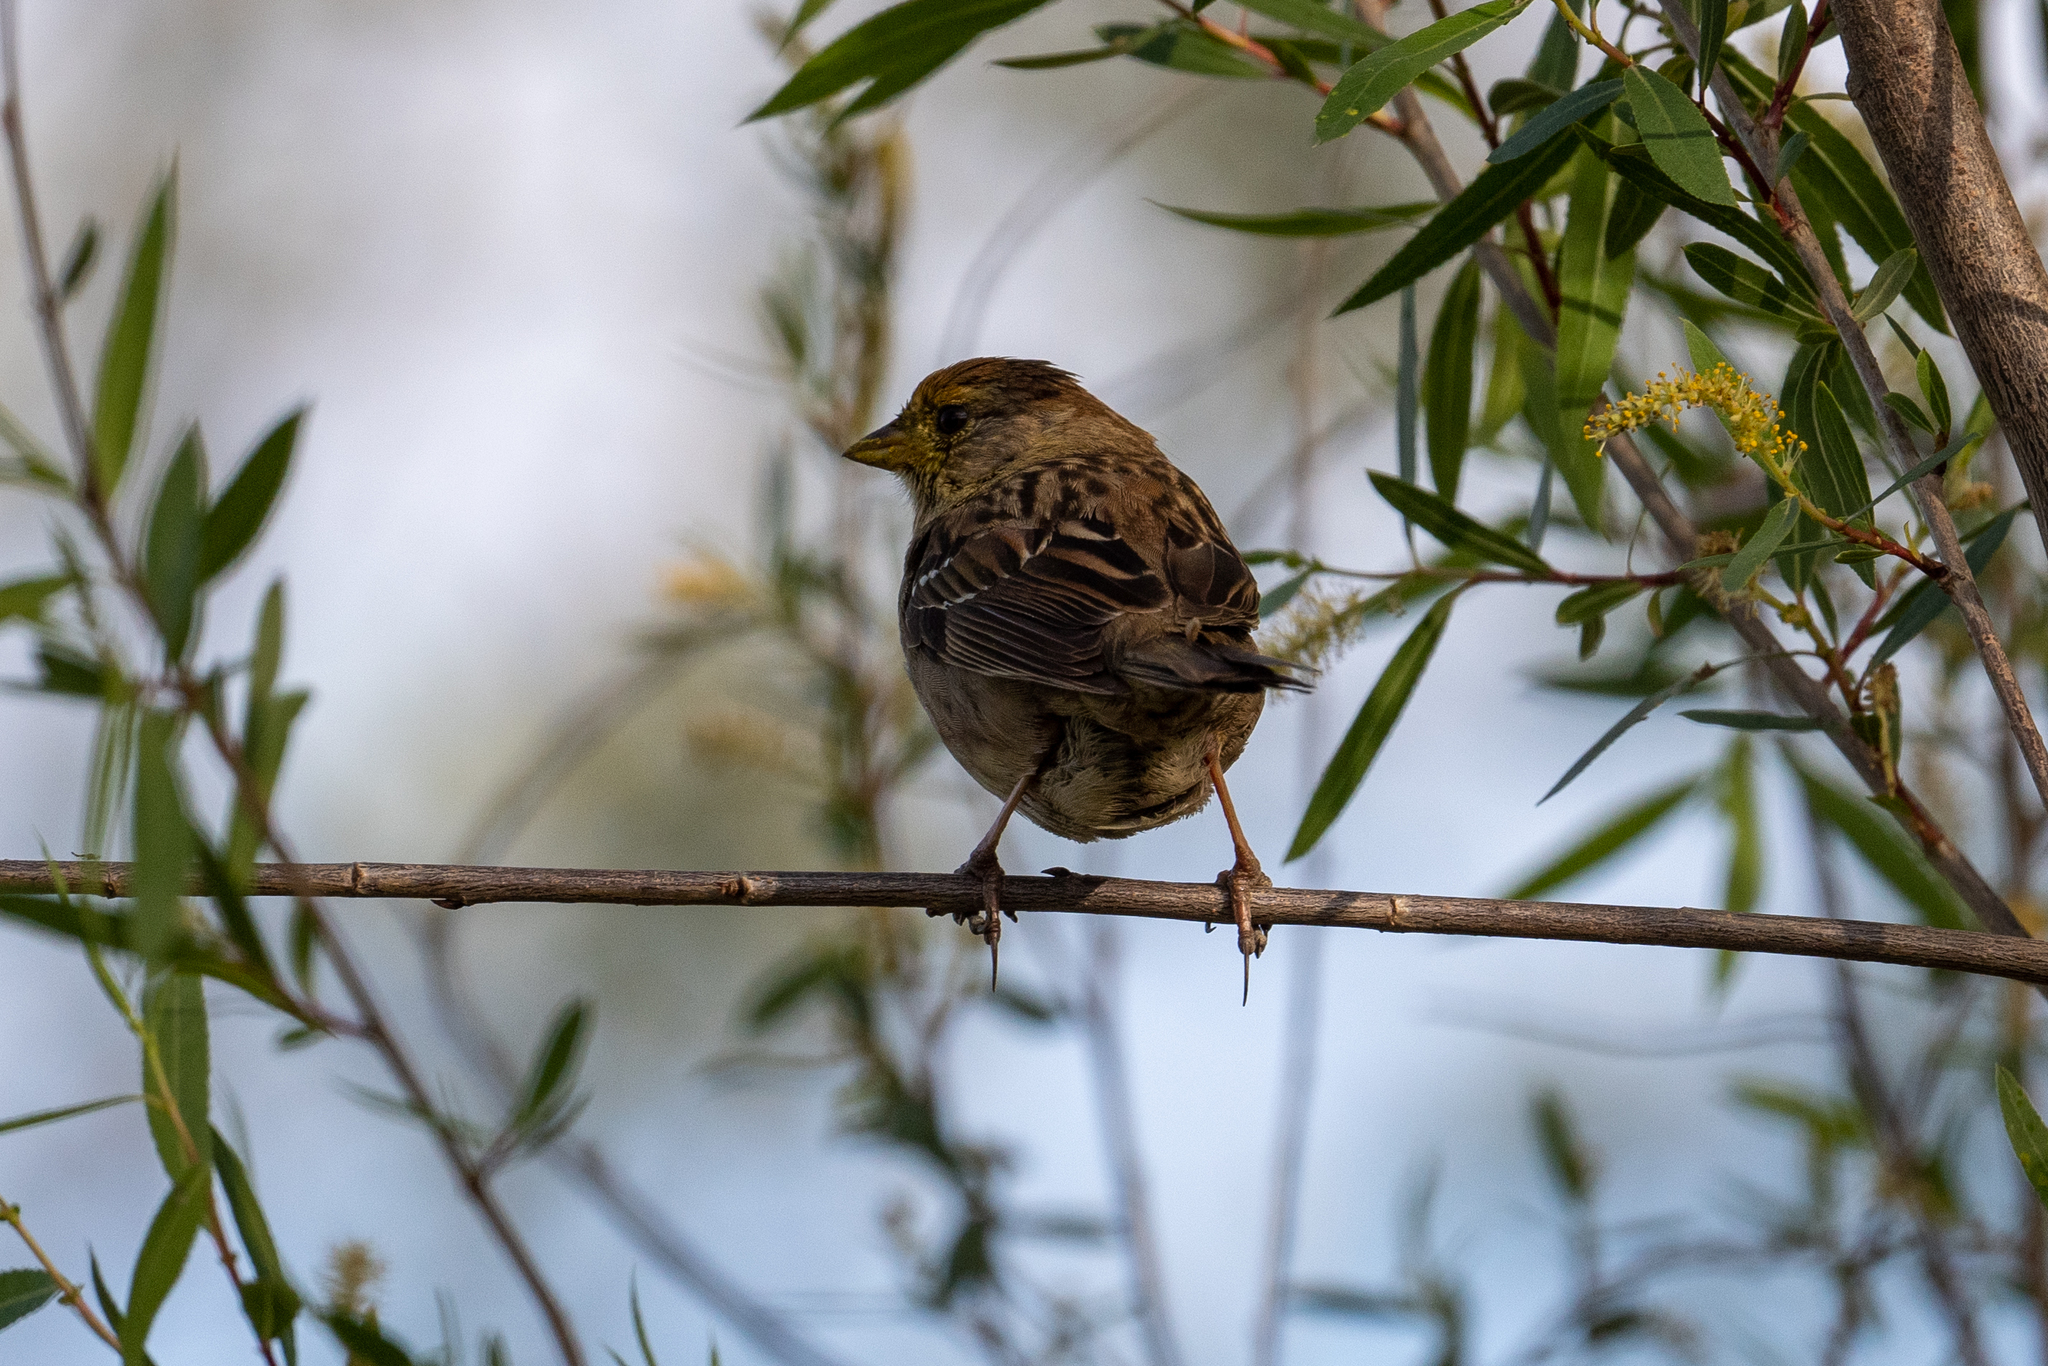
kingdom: Animalia
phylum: Chordata
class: Aves
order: Passeriformes
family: Passerellidae
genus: Zonotrichia
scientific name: Zonotrichia atricapilla
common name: Golden-crowned sparrow
